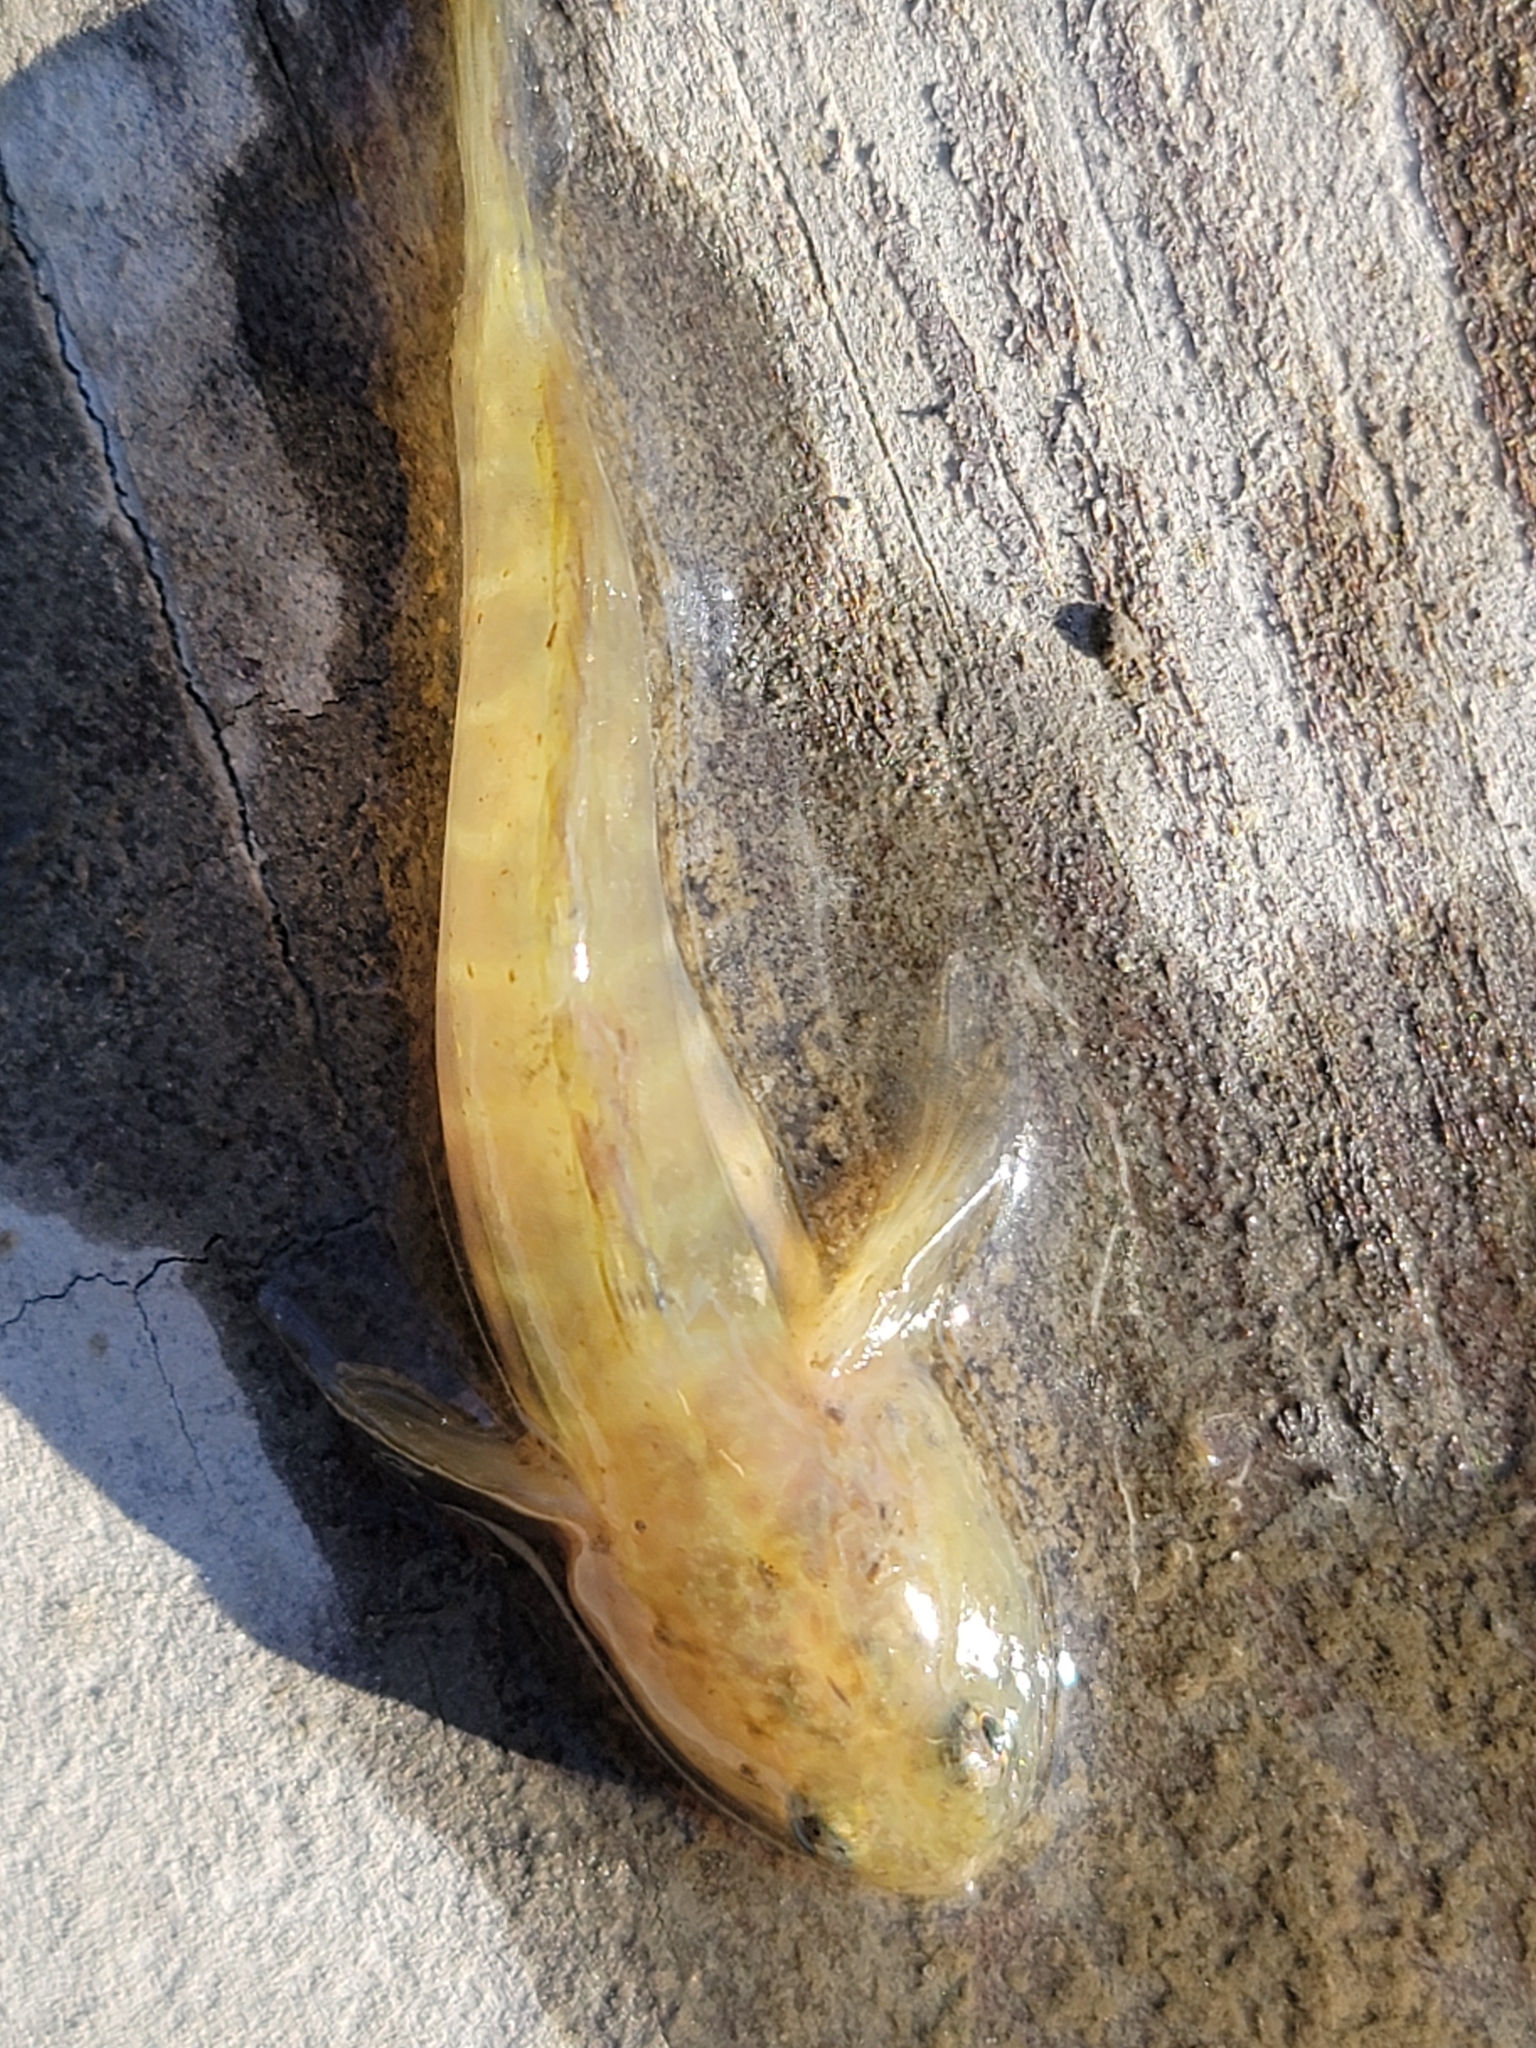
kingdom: Animalia
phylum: Chordata
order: Perciformes
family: Gobiidae
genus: Gobiosoma
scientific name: Gobiosoma bosc
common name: Naked goby
